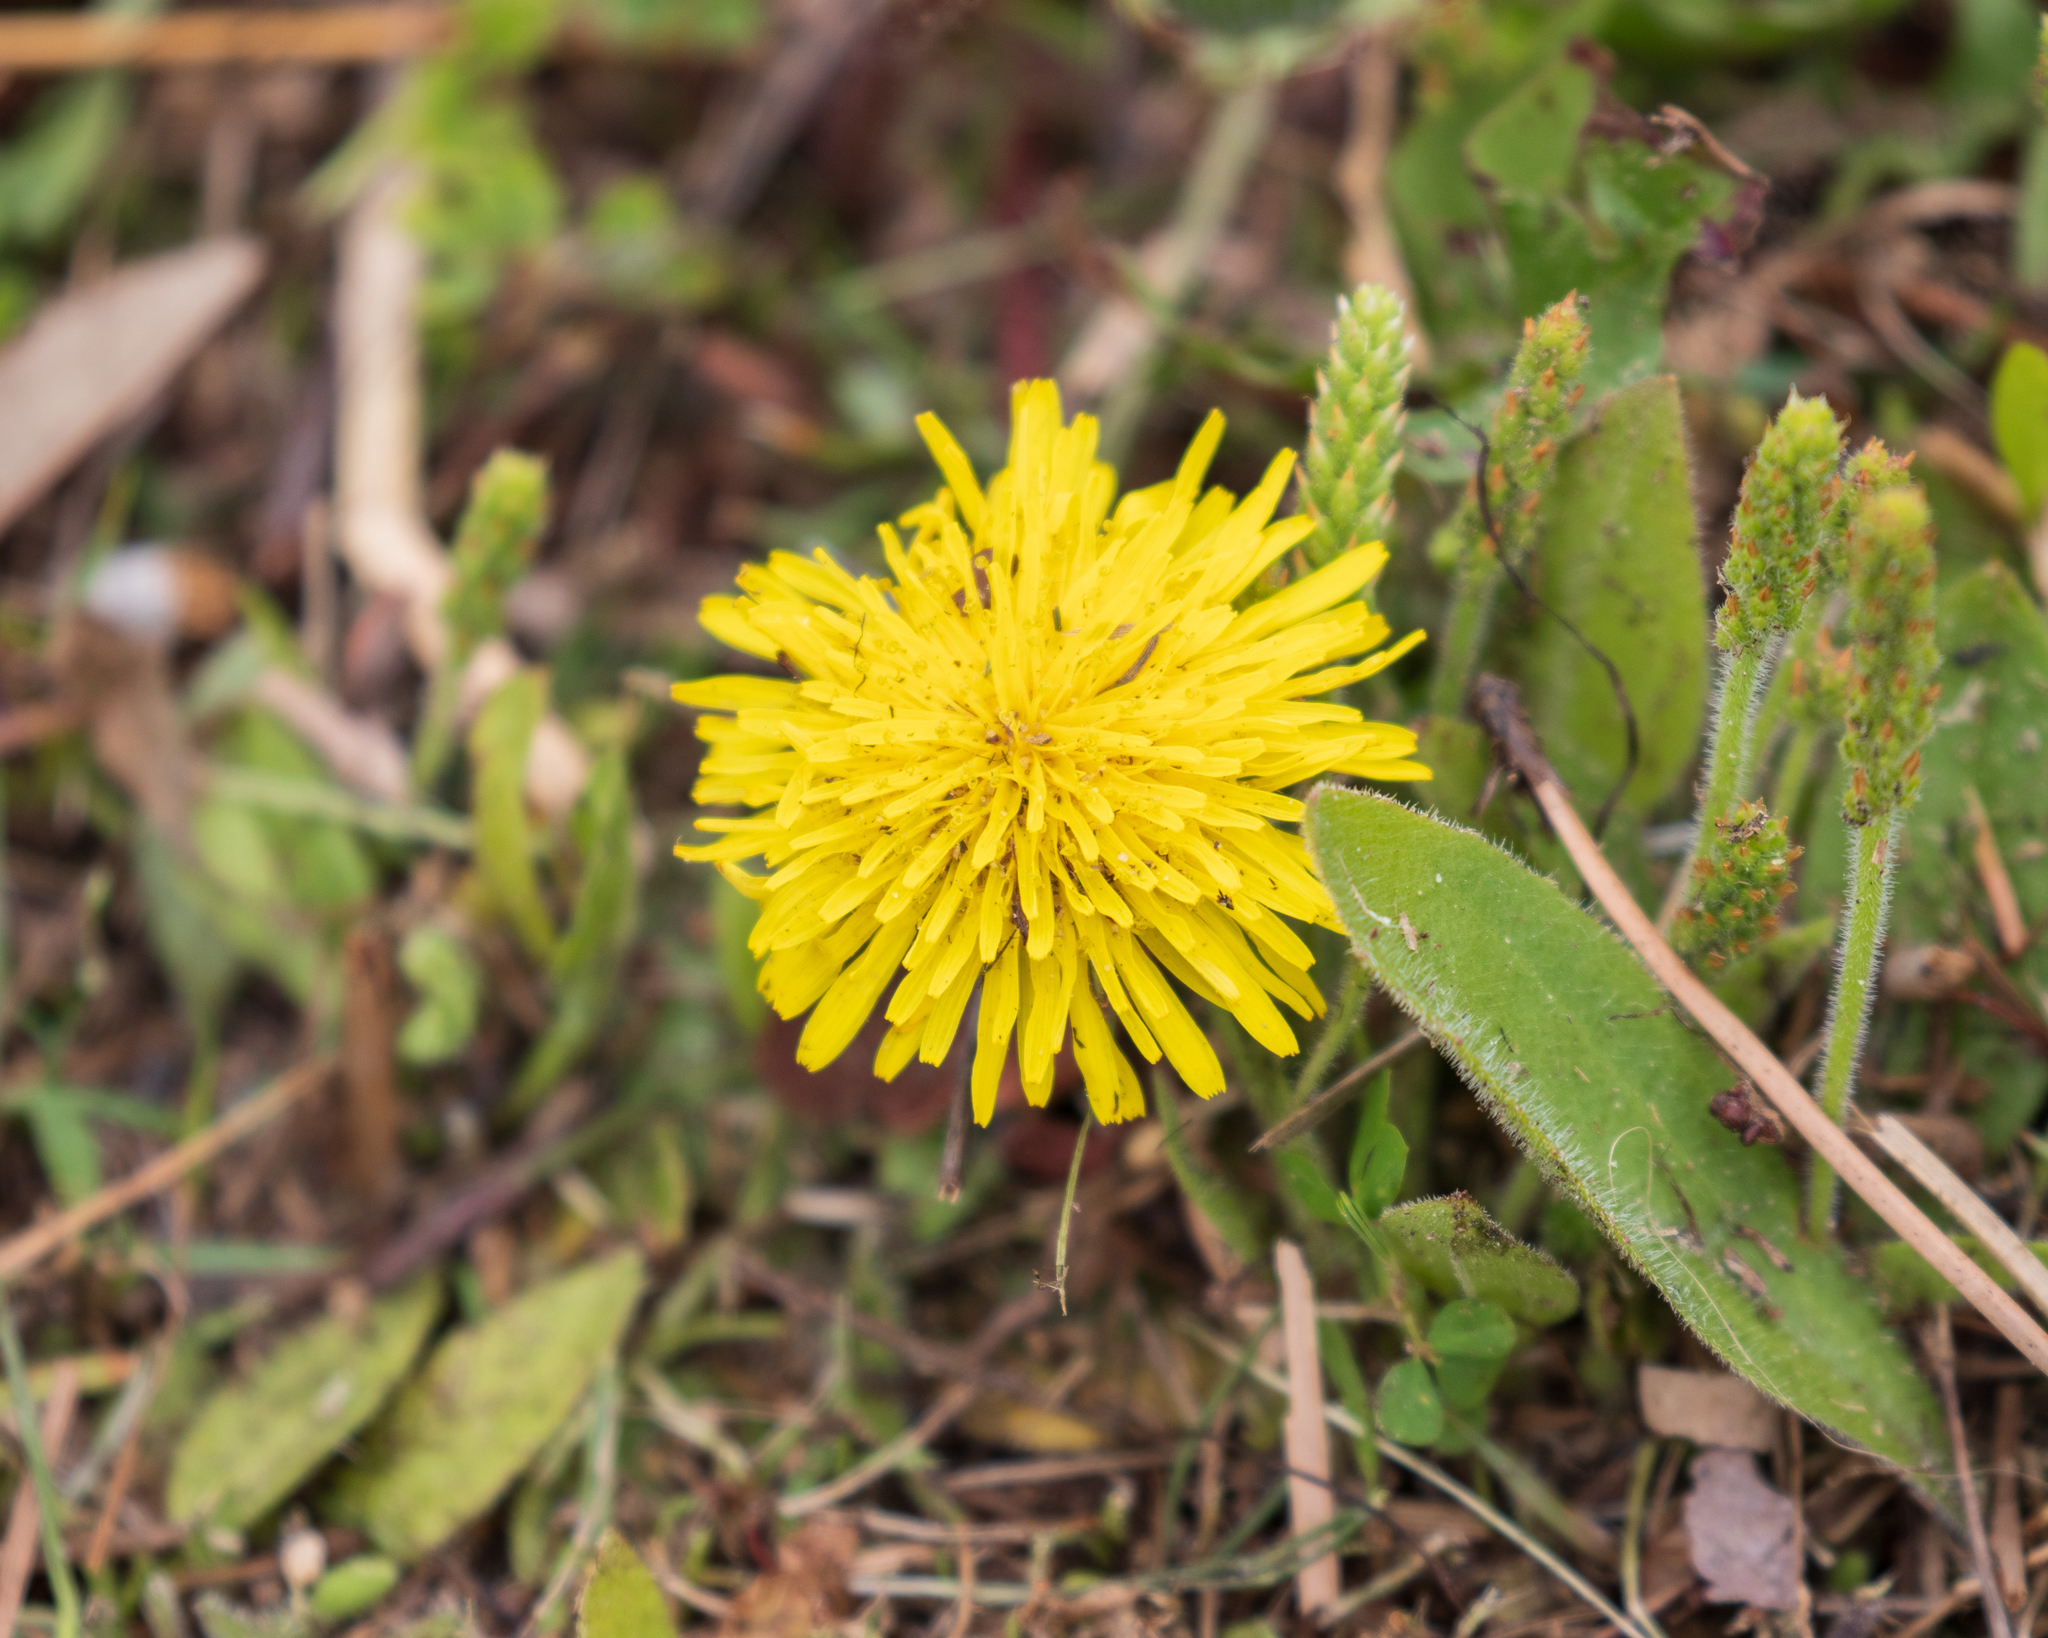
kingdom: Plantae
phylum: Tracheophyta
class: Magnoliopsida
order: Asterales
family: Asteraceae
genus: Taraxacum
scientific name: Taraxacum officinale
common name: Common dandelion
